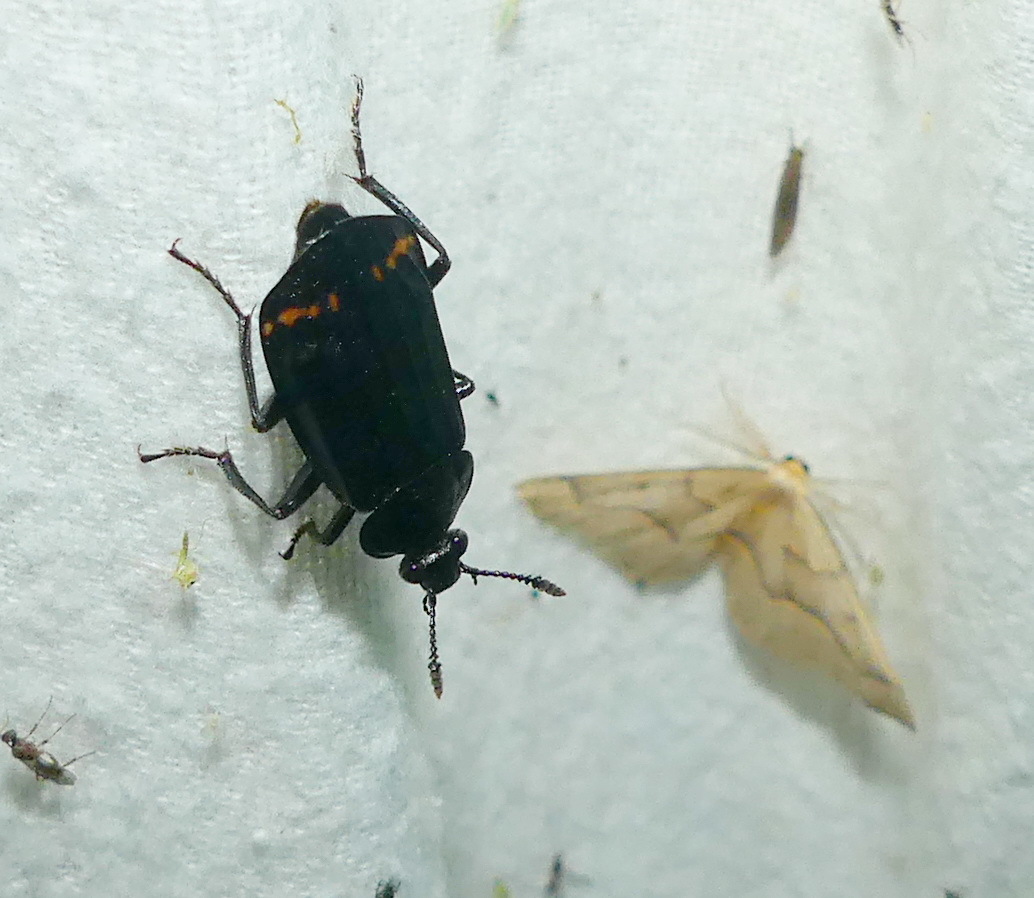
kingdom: Animalia
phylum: Arthropoda
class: Insecta
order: Coleoptera
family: Staphylinidae
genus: Necrodes
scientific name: Necrodes surinamensis
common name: Red-lined carrion beetle
